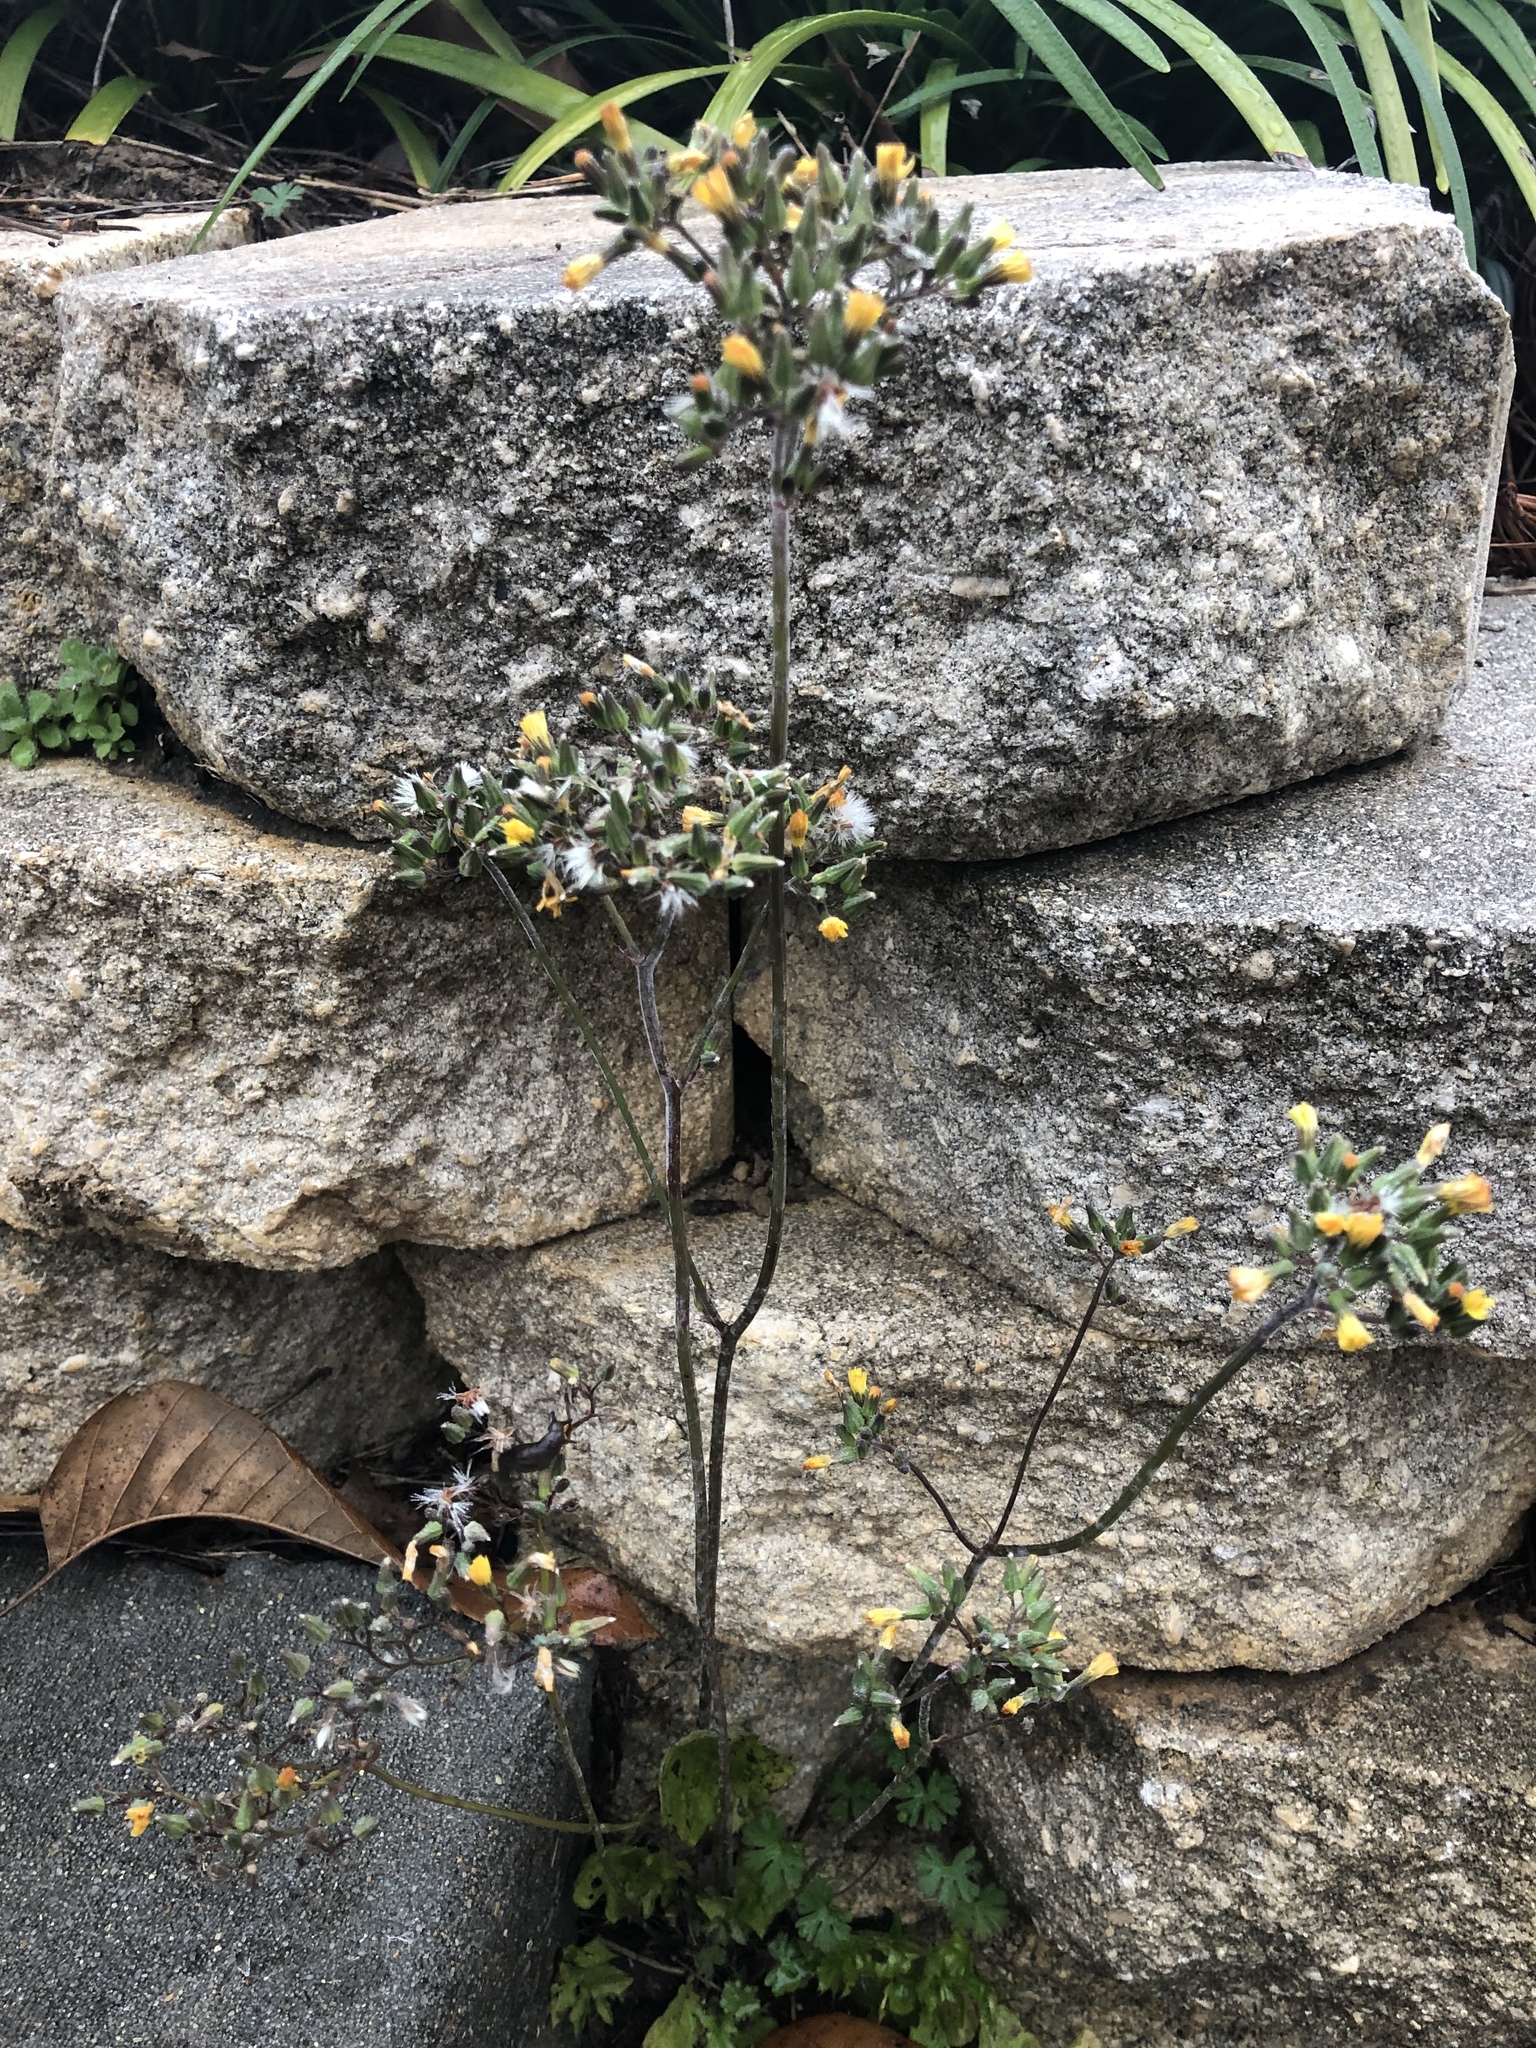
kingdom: Plantae
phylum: Tracheophyta
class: Magnoliopsida
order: Asterales
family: Asteraceae
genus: Youngia
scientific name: Youngia japonica
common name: Oriental false hawksbeard
